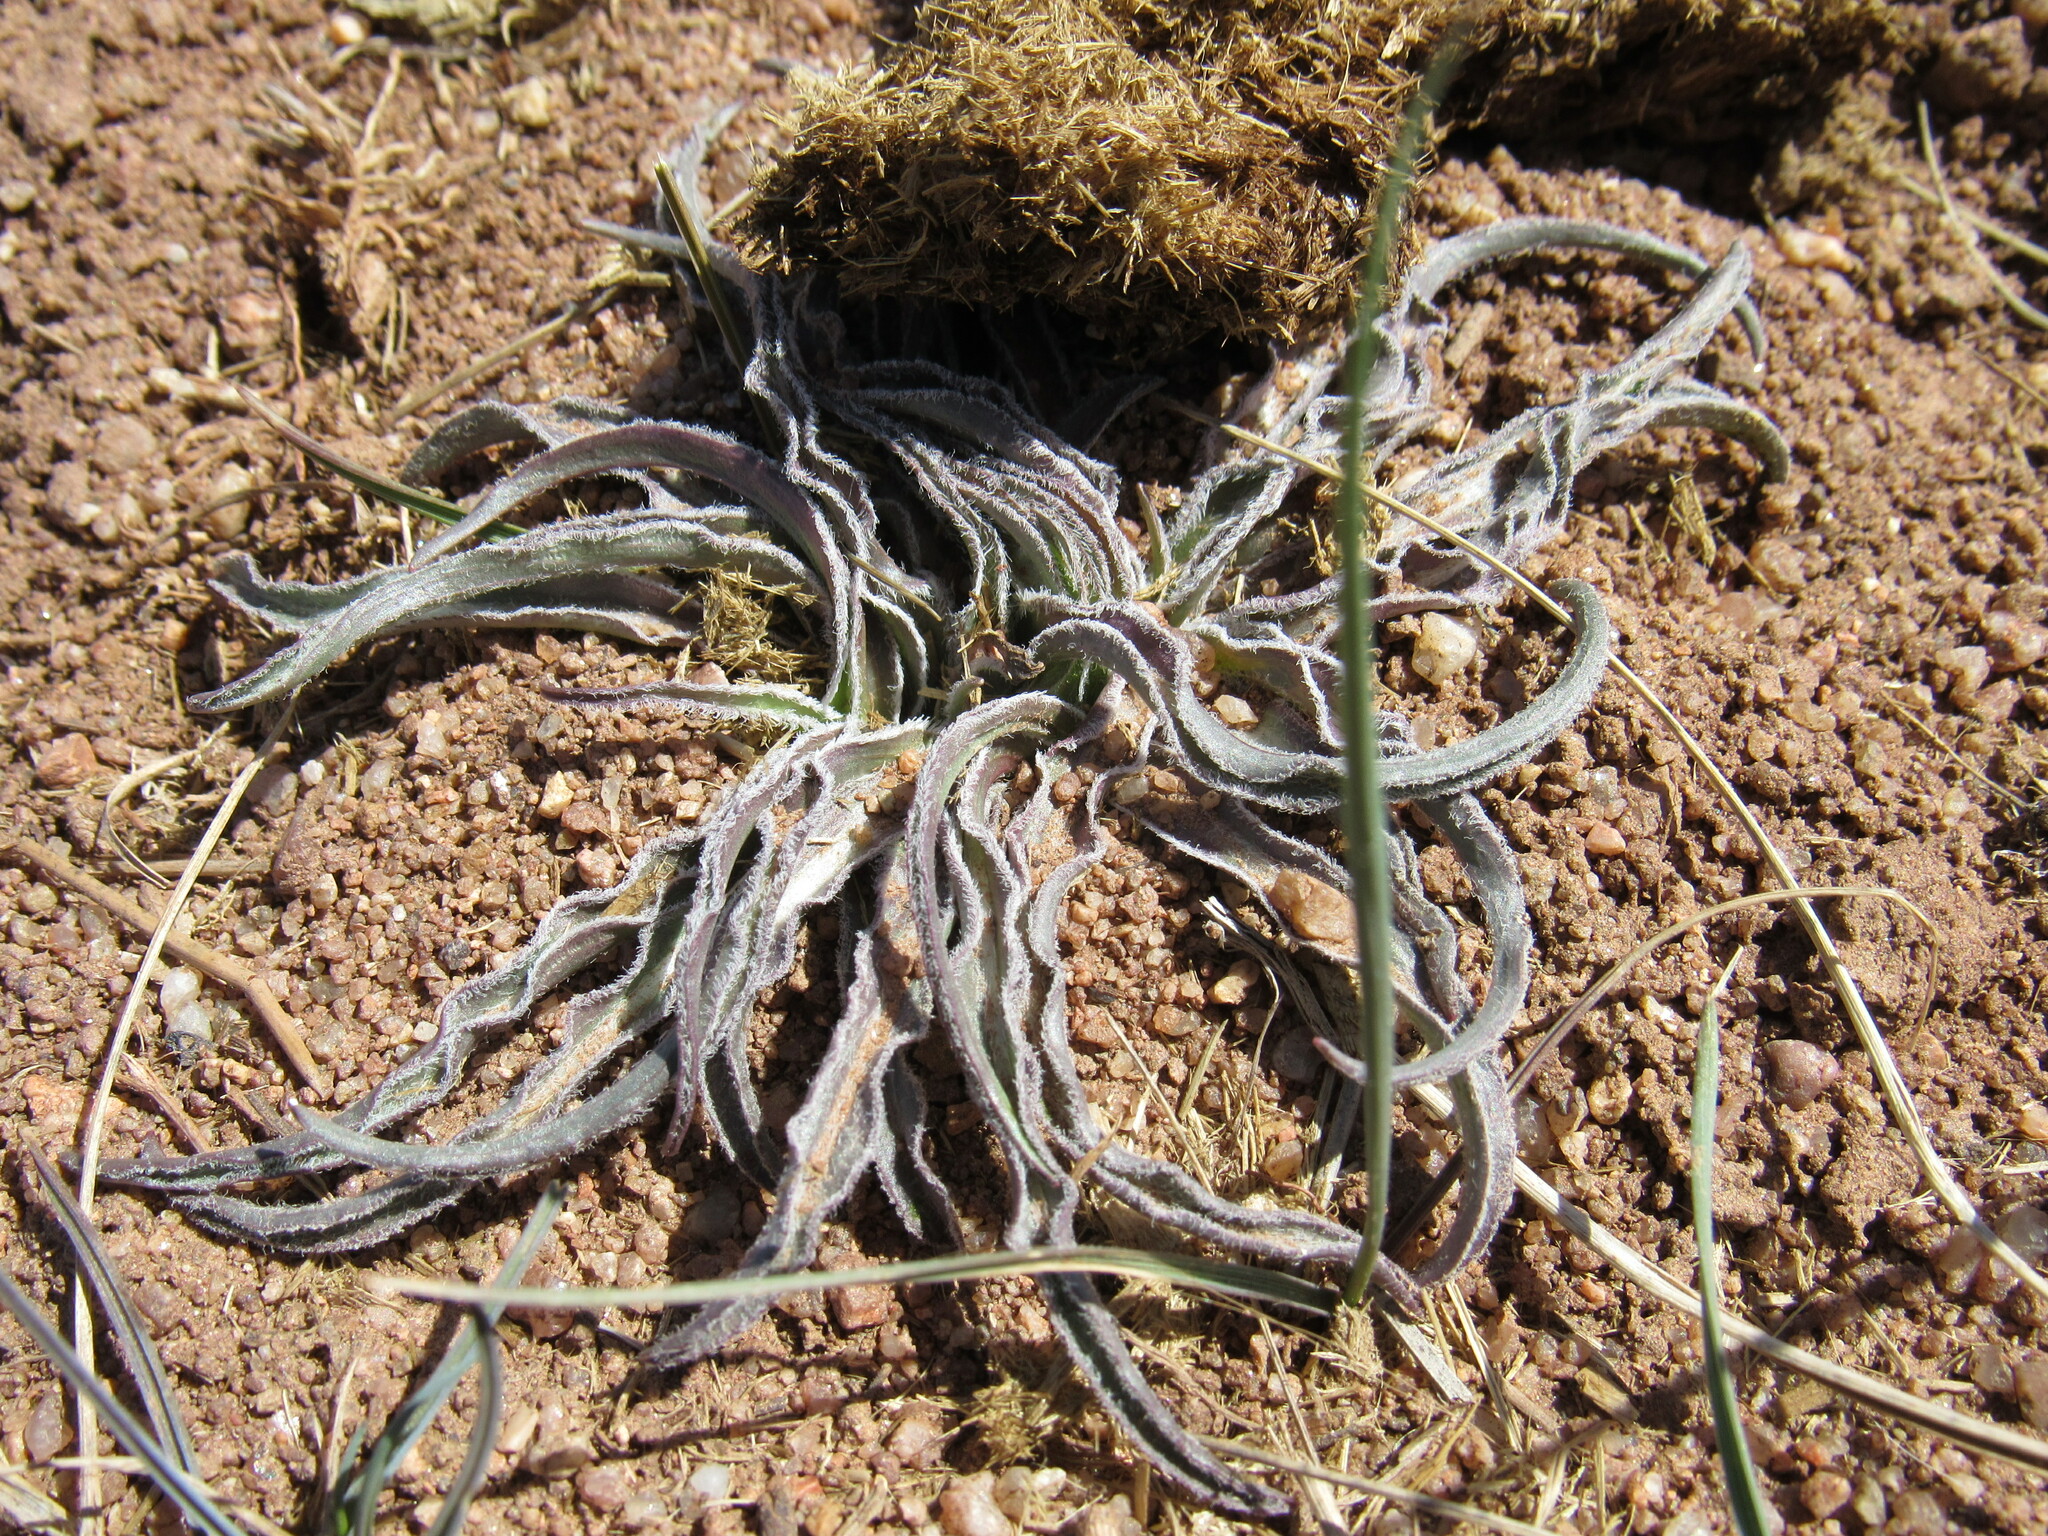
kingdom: Plantae
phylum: Tracheophyta
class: Magnoliopsida
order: Asterales
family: Asteraceae
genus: Microseris
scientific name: Microseris cuspidata
